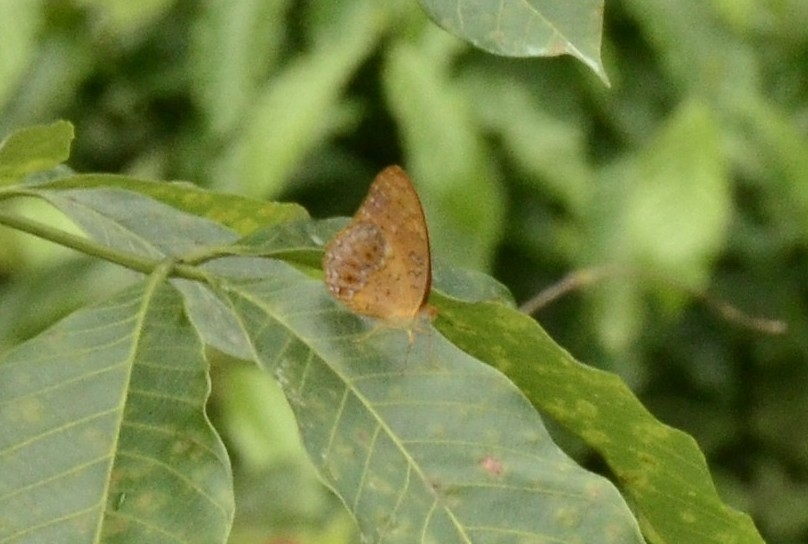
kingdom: Animalia
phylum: Arthropoda
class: Insecta
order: Lepidoptera
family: Nymphalidae
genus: Phalanta
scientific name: Phalanta phalantha
